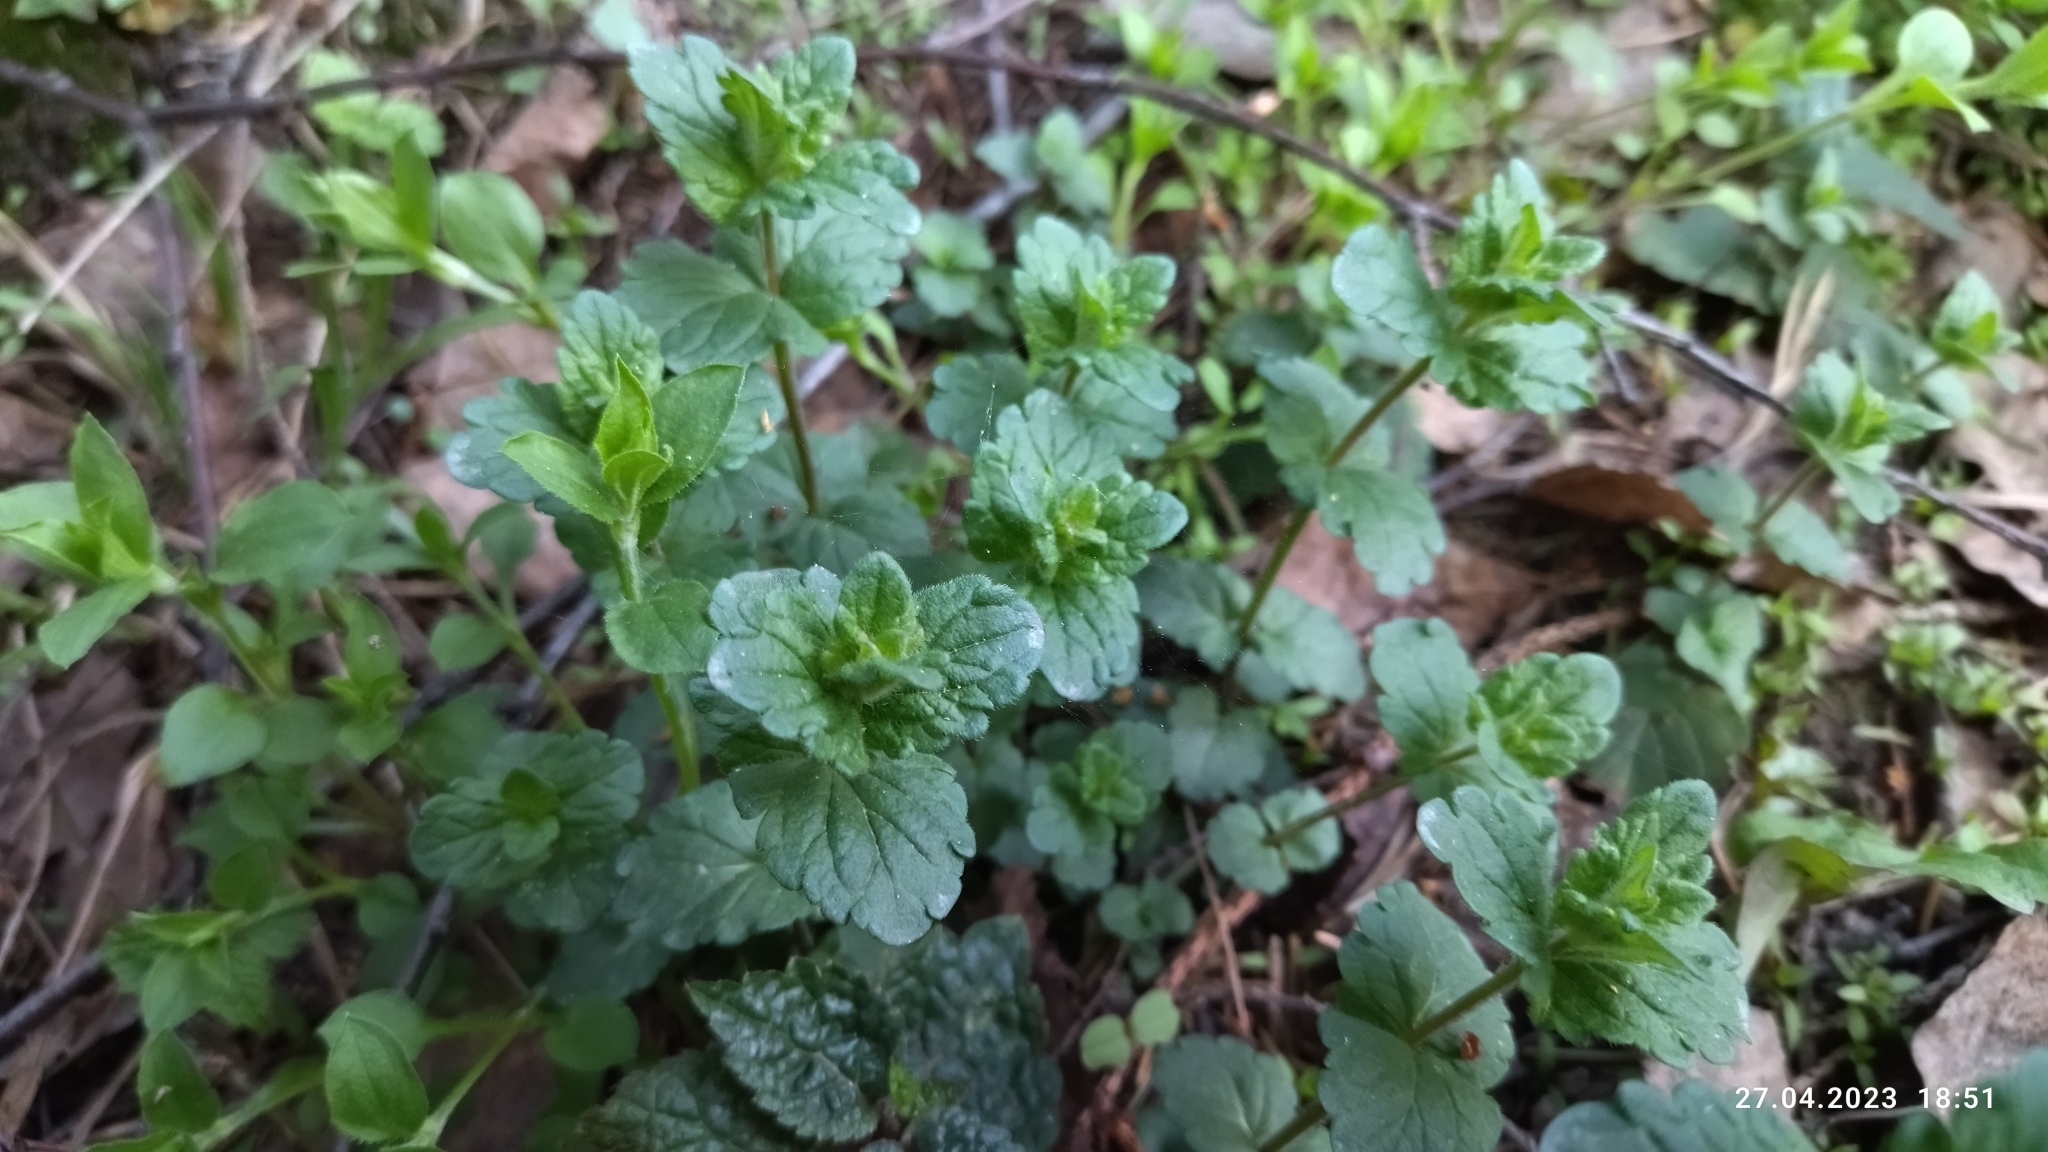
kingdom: Plantae
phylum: Tracheophyta
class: Magnoliopsida
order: Lamiales
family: Plantaginaceae
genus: Veronica
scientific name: Veronica chamaedrys
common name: Germander speedwell
